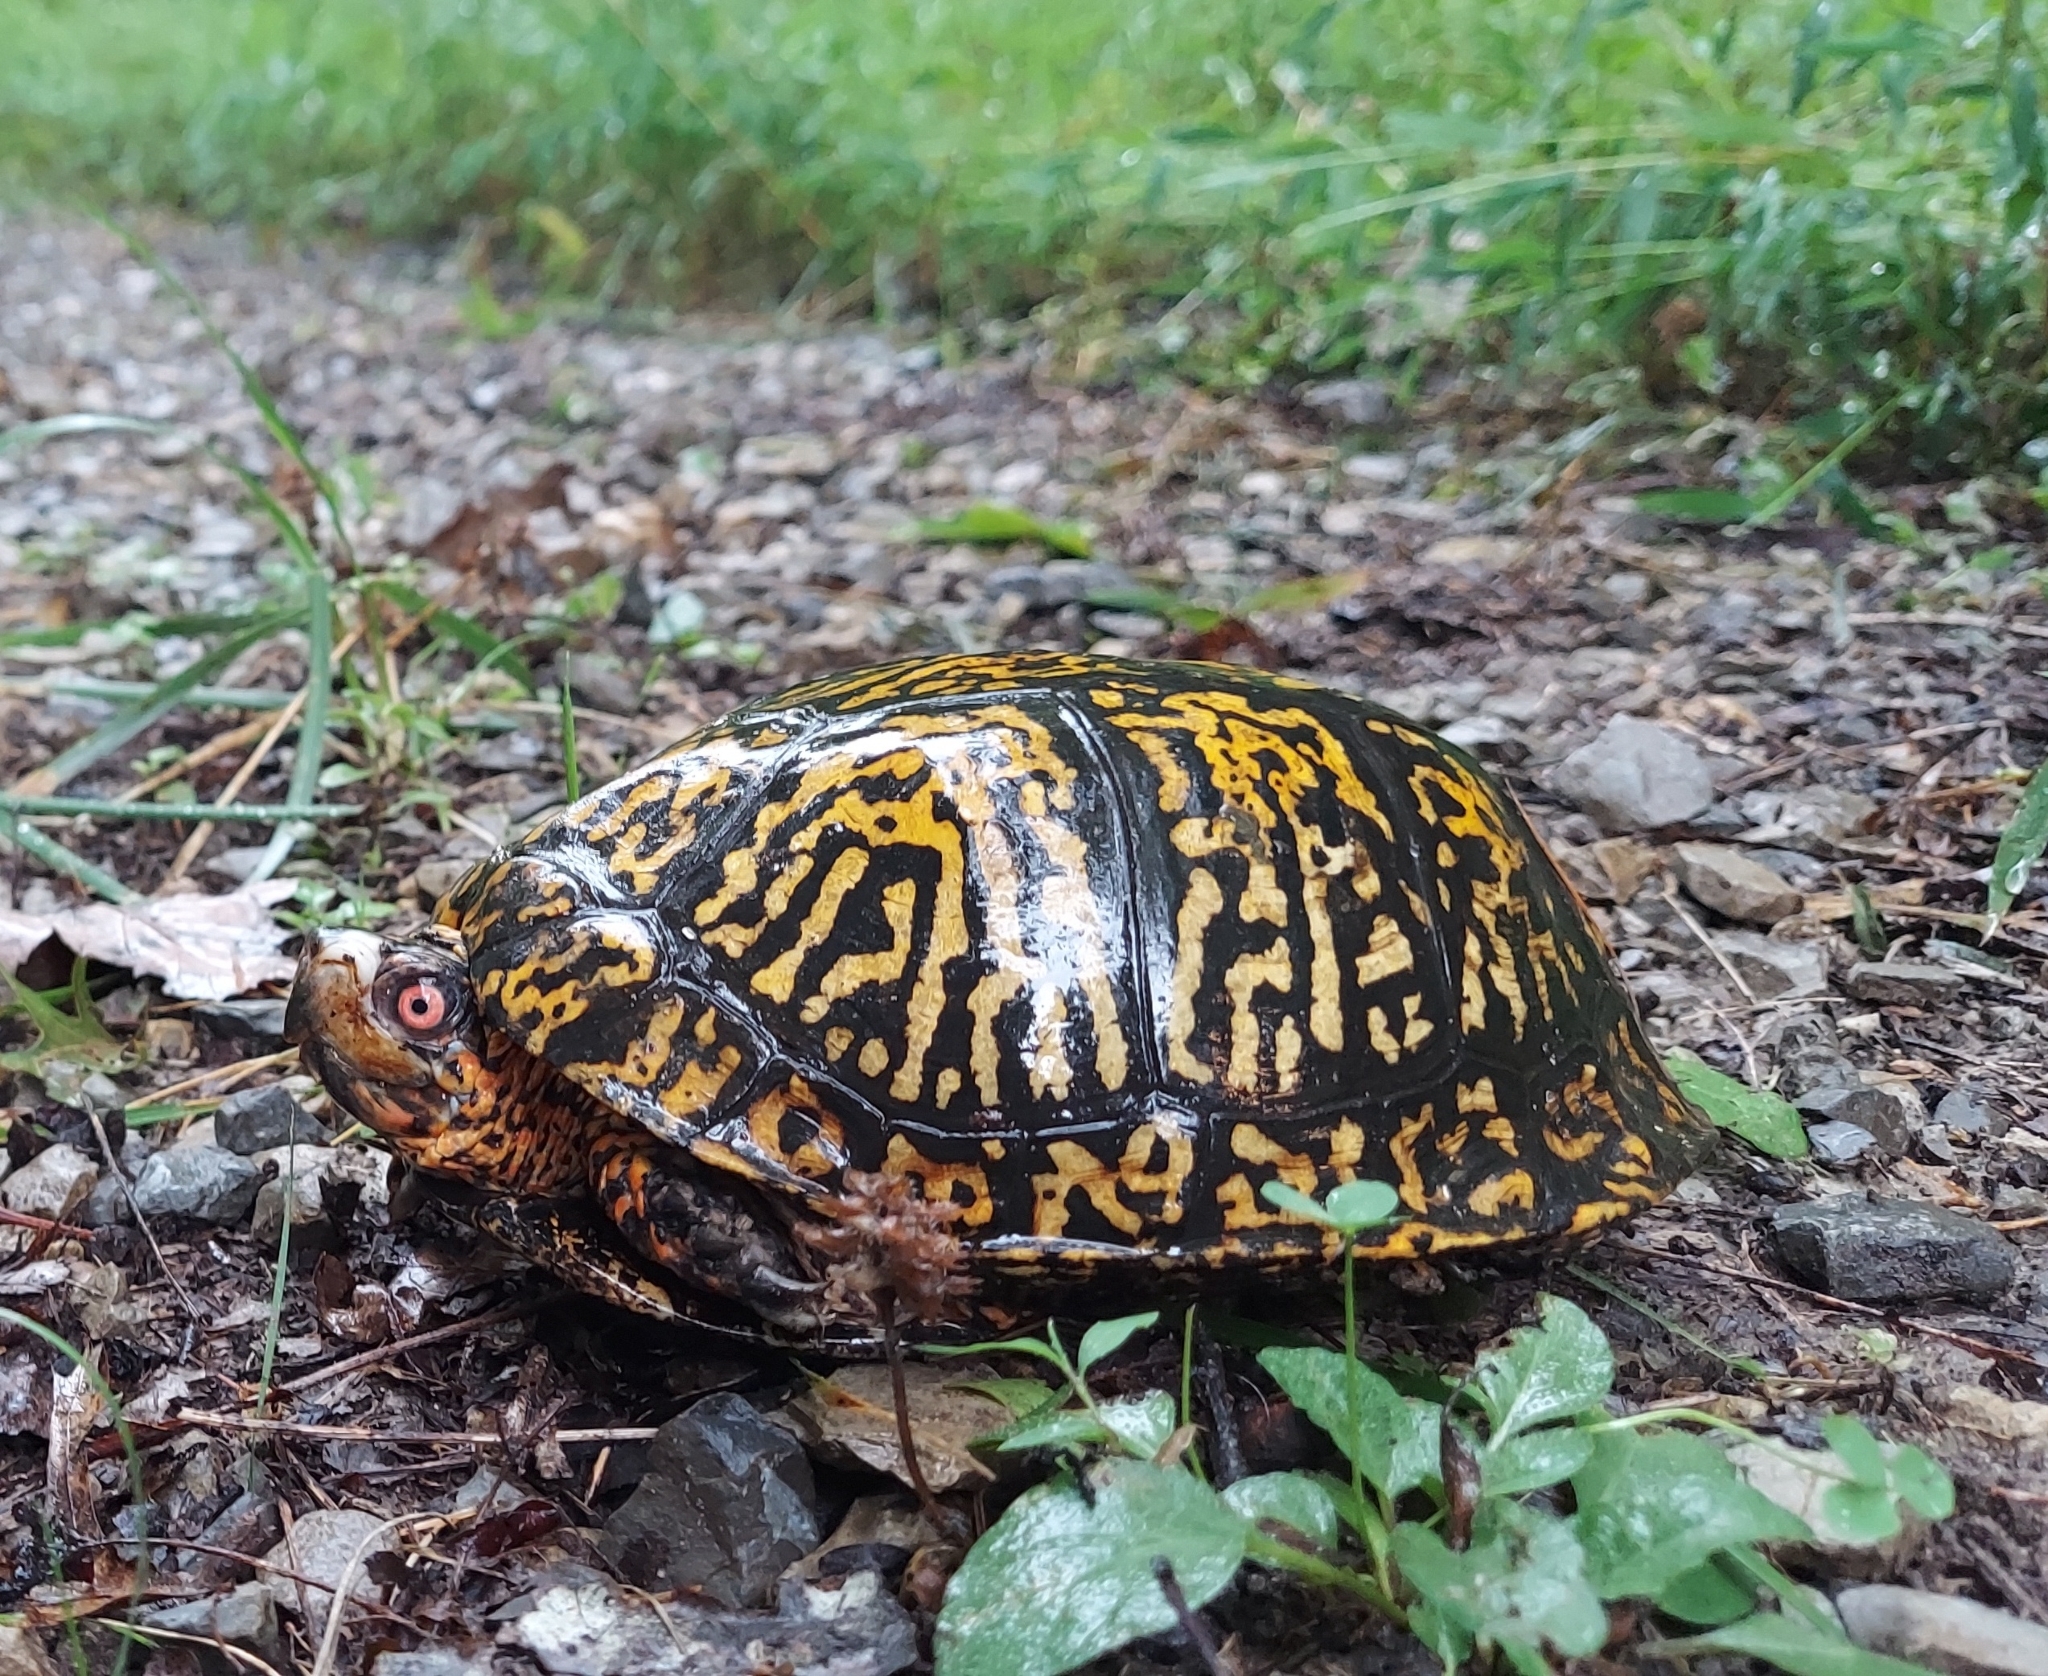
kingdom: Animalia
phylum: Chordata
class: Testudines
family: Emydidae
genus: Terrapene
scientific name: Terrapene carolina
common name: Common box turtle
